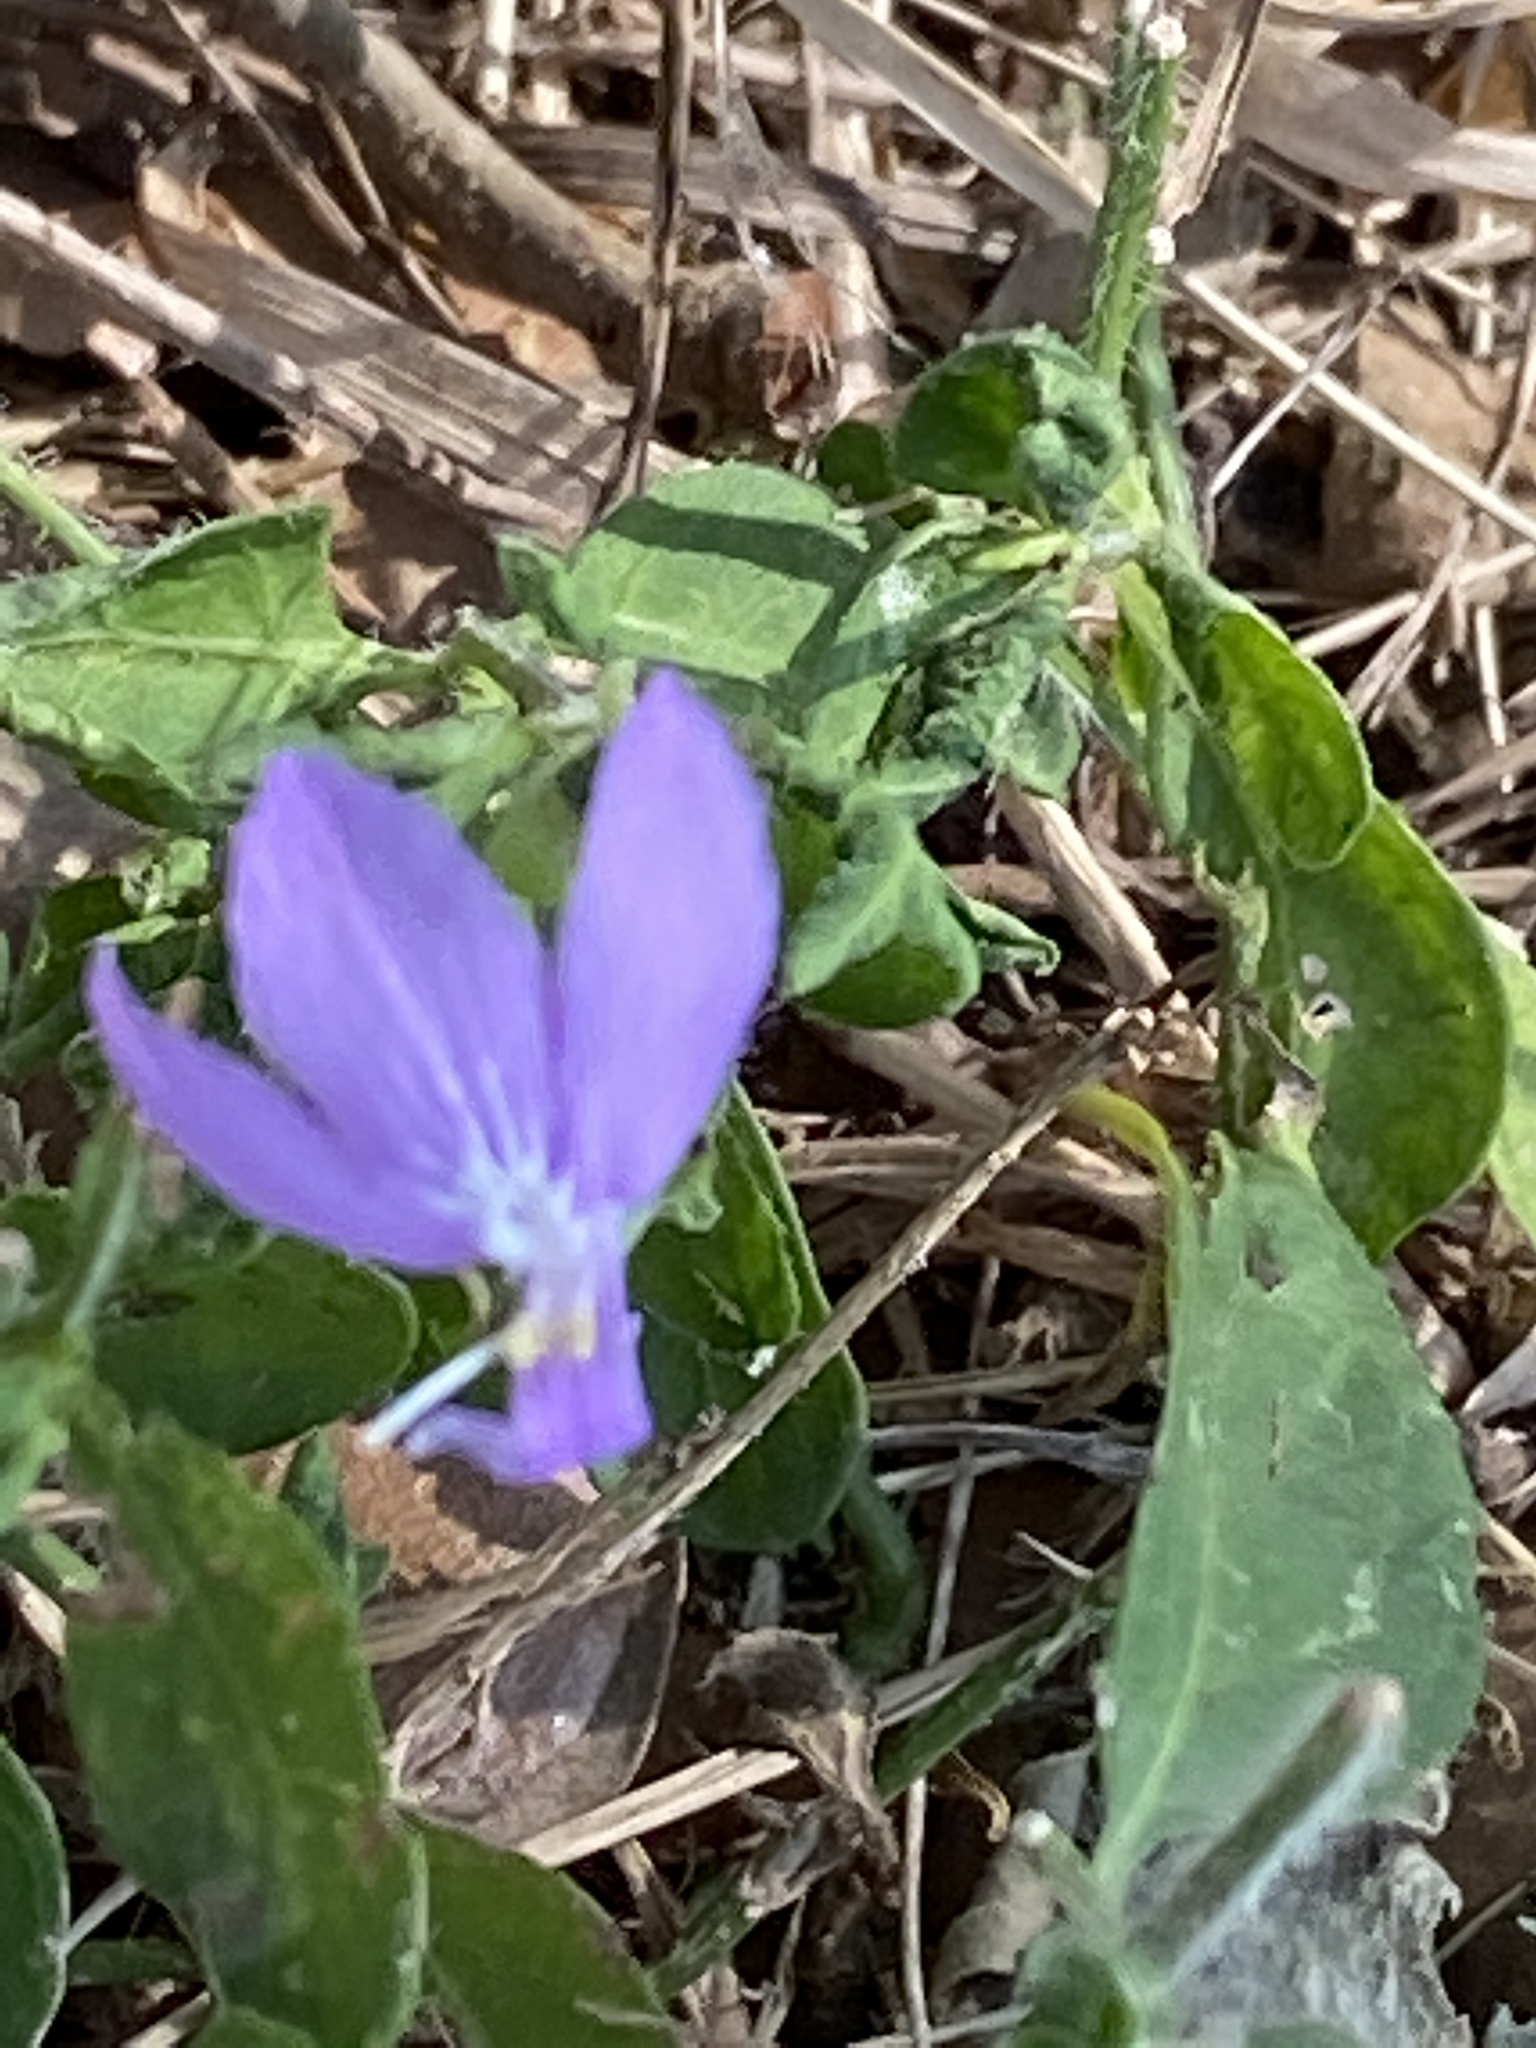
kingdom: Plantae
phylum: Tracheophyta
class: Magnoliopsida
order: Lamiales
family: Acanthaceae
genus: Justicia
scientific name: Justicia pilosella
